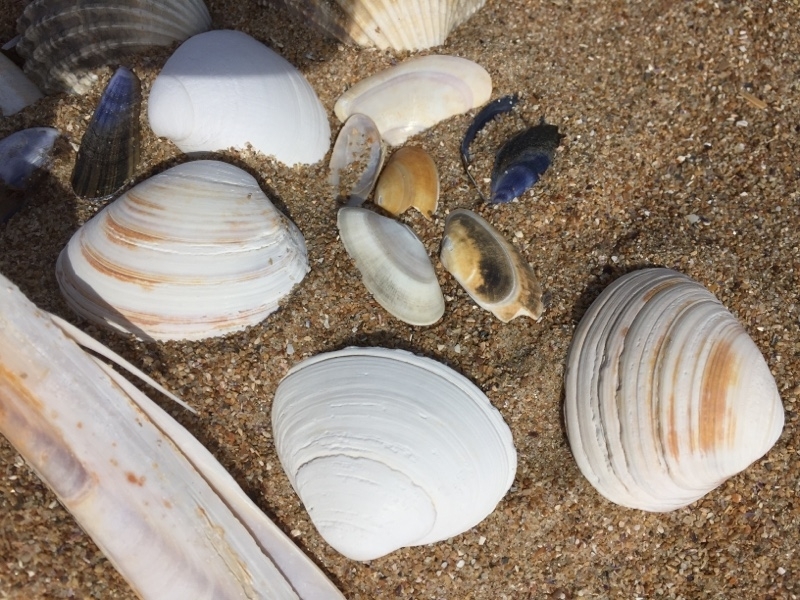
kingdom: Animalia
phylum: Mollusca
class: Bivalvia
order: Venerida
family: Mactridae
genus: Spisula
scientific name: Spisula solida
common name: Thick trough shell
